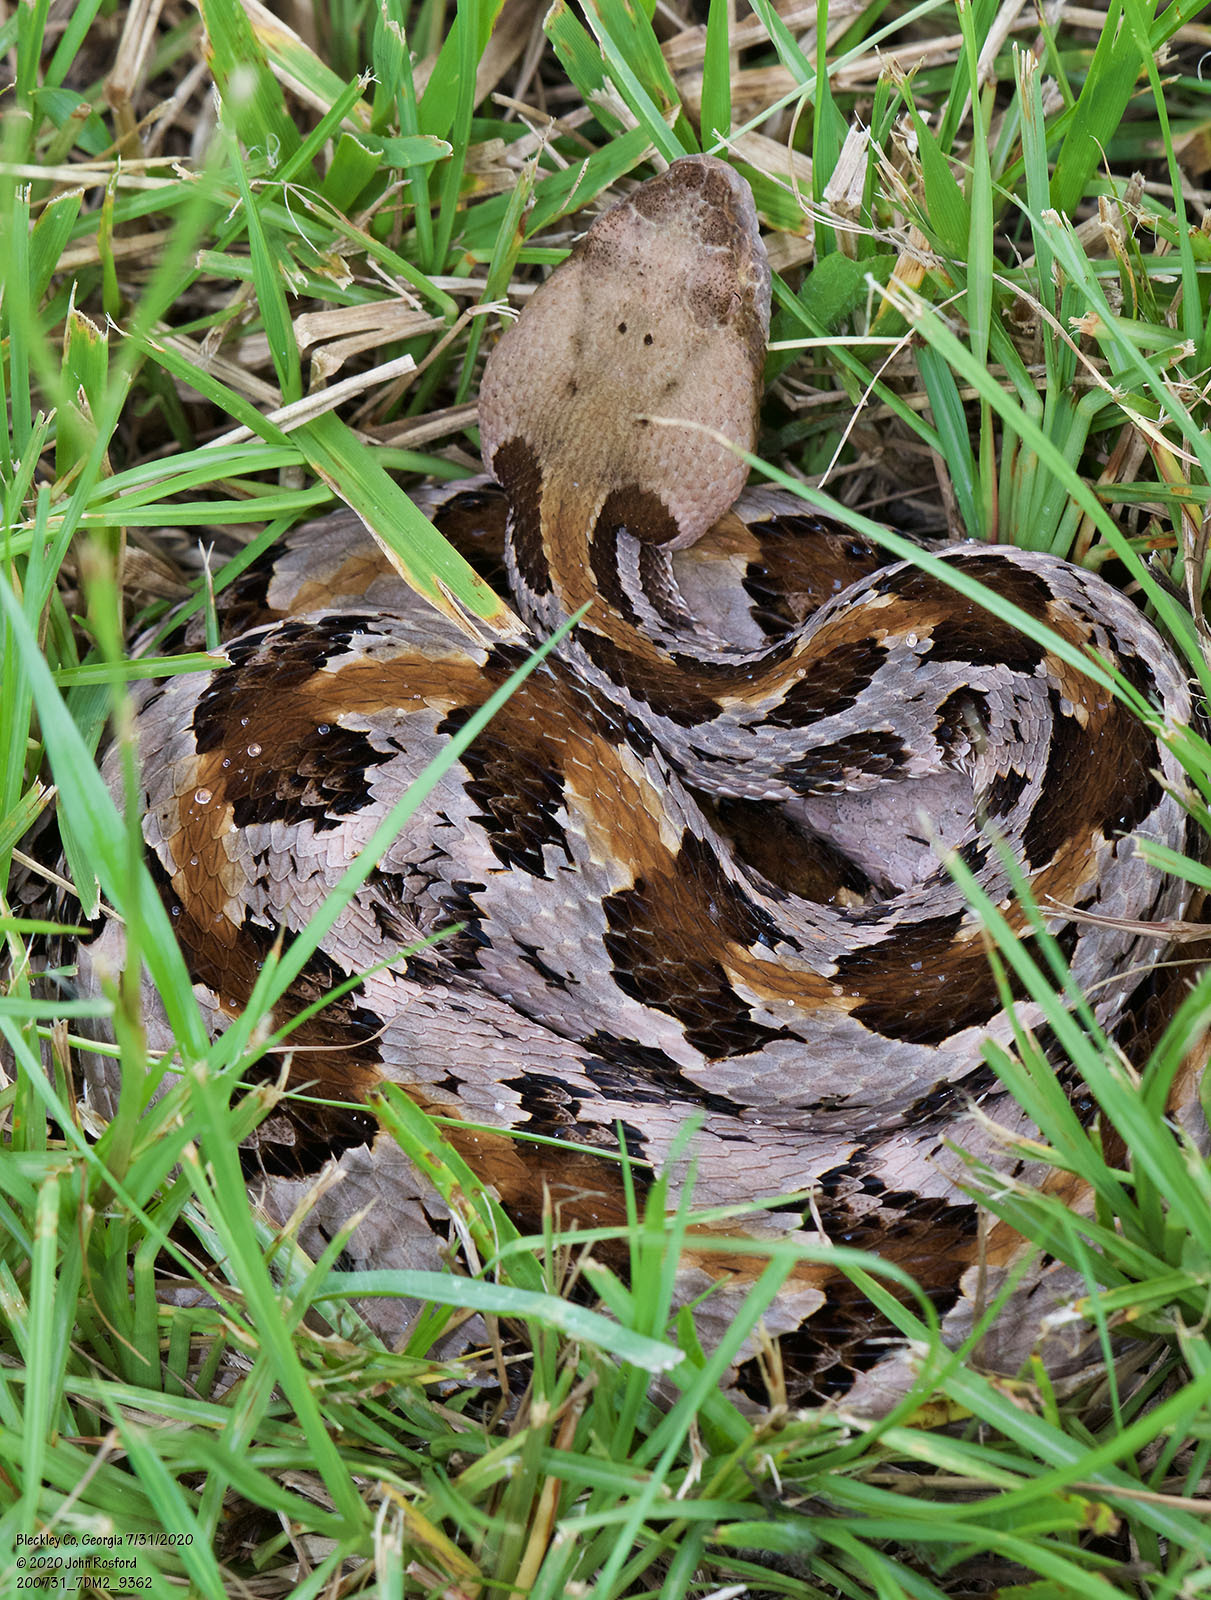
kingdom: Animalia
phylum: Chordata
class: Squamata
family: Viperidae
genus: Crotalus
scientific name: Crotalus horridus
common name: Timber rattlesnake
